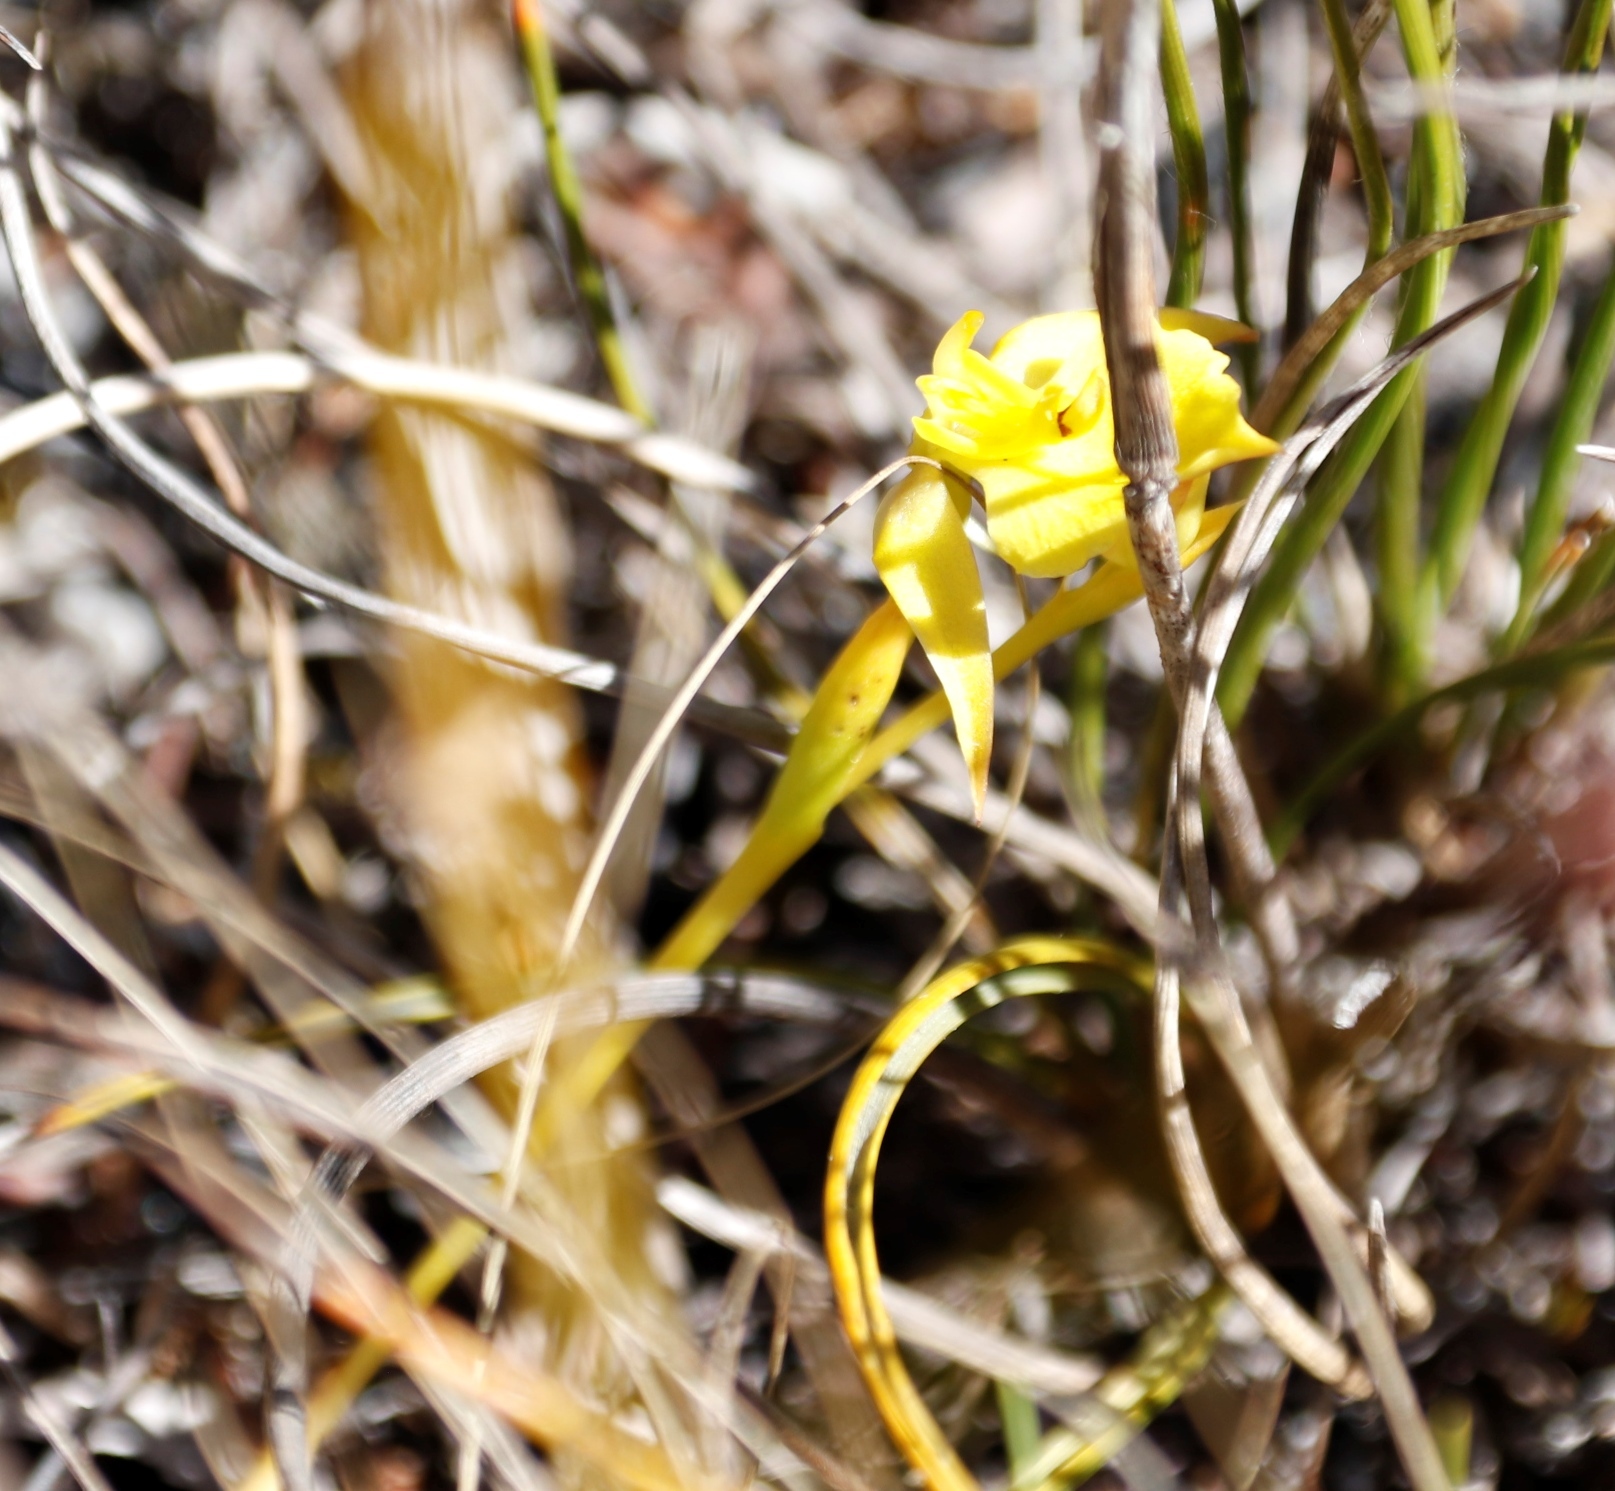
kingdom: Plantae
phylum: Tracheophyta
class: Liliopsida
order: Asparagales
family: Orchidaceae
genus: Disa
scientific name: Disa tenuifolia
